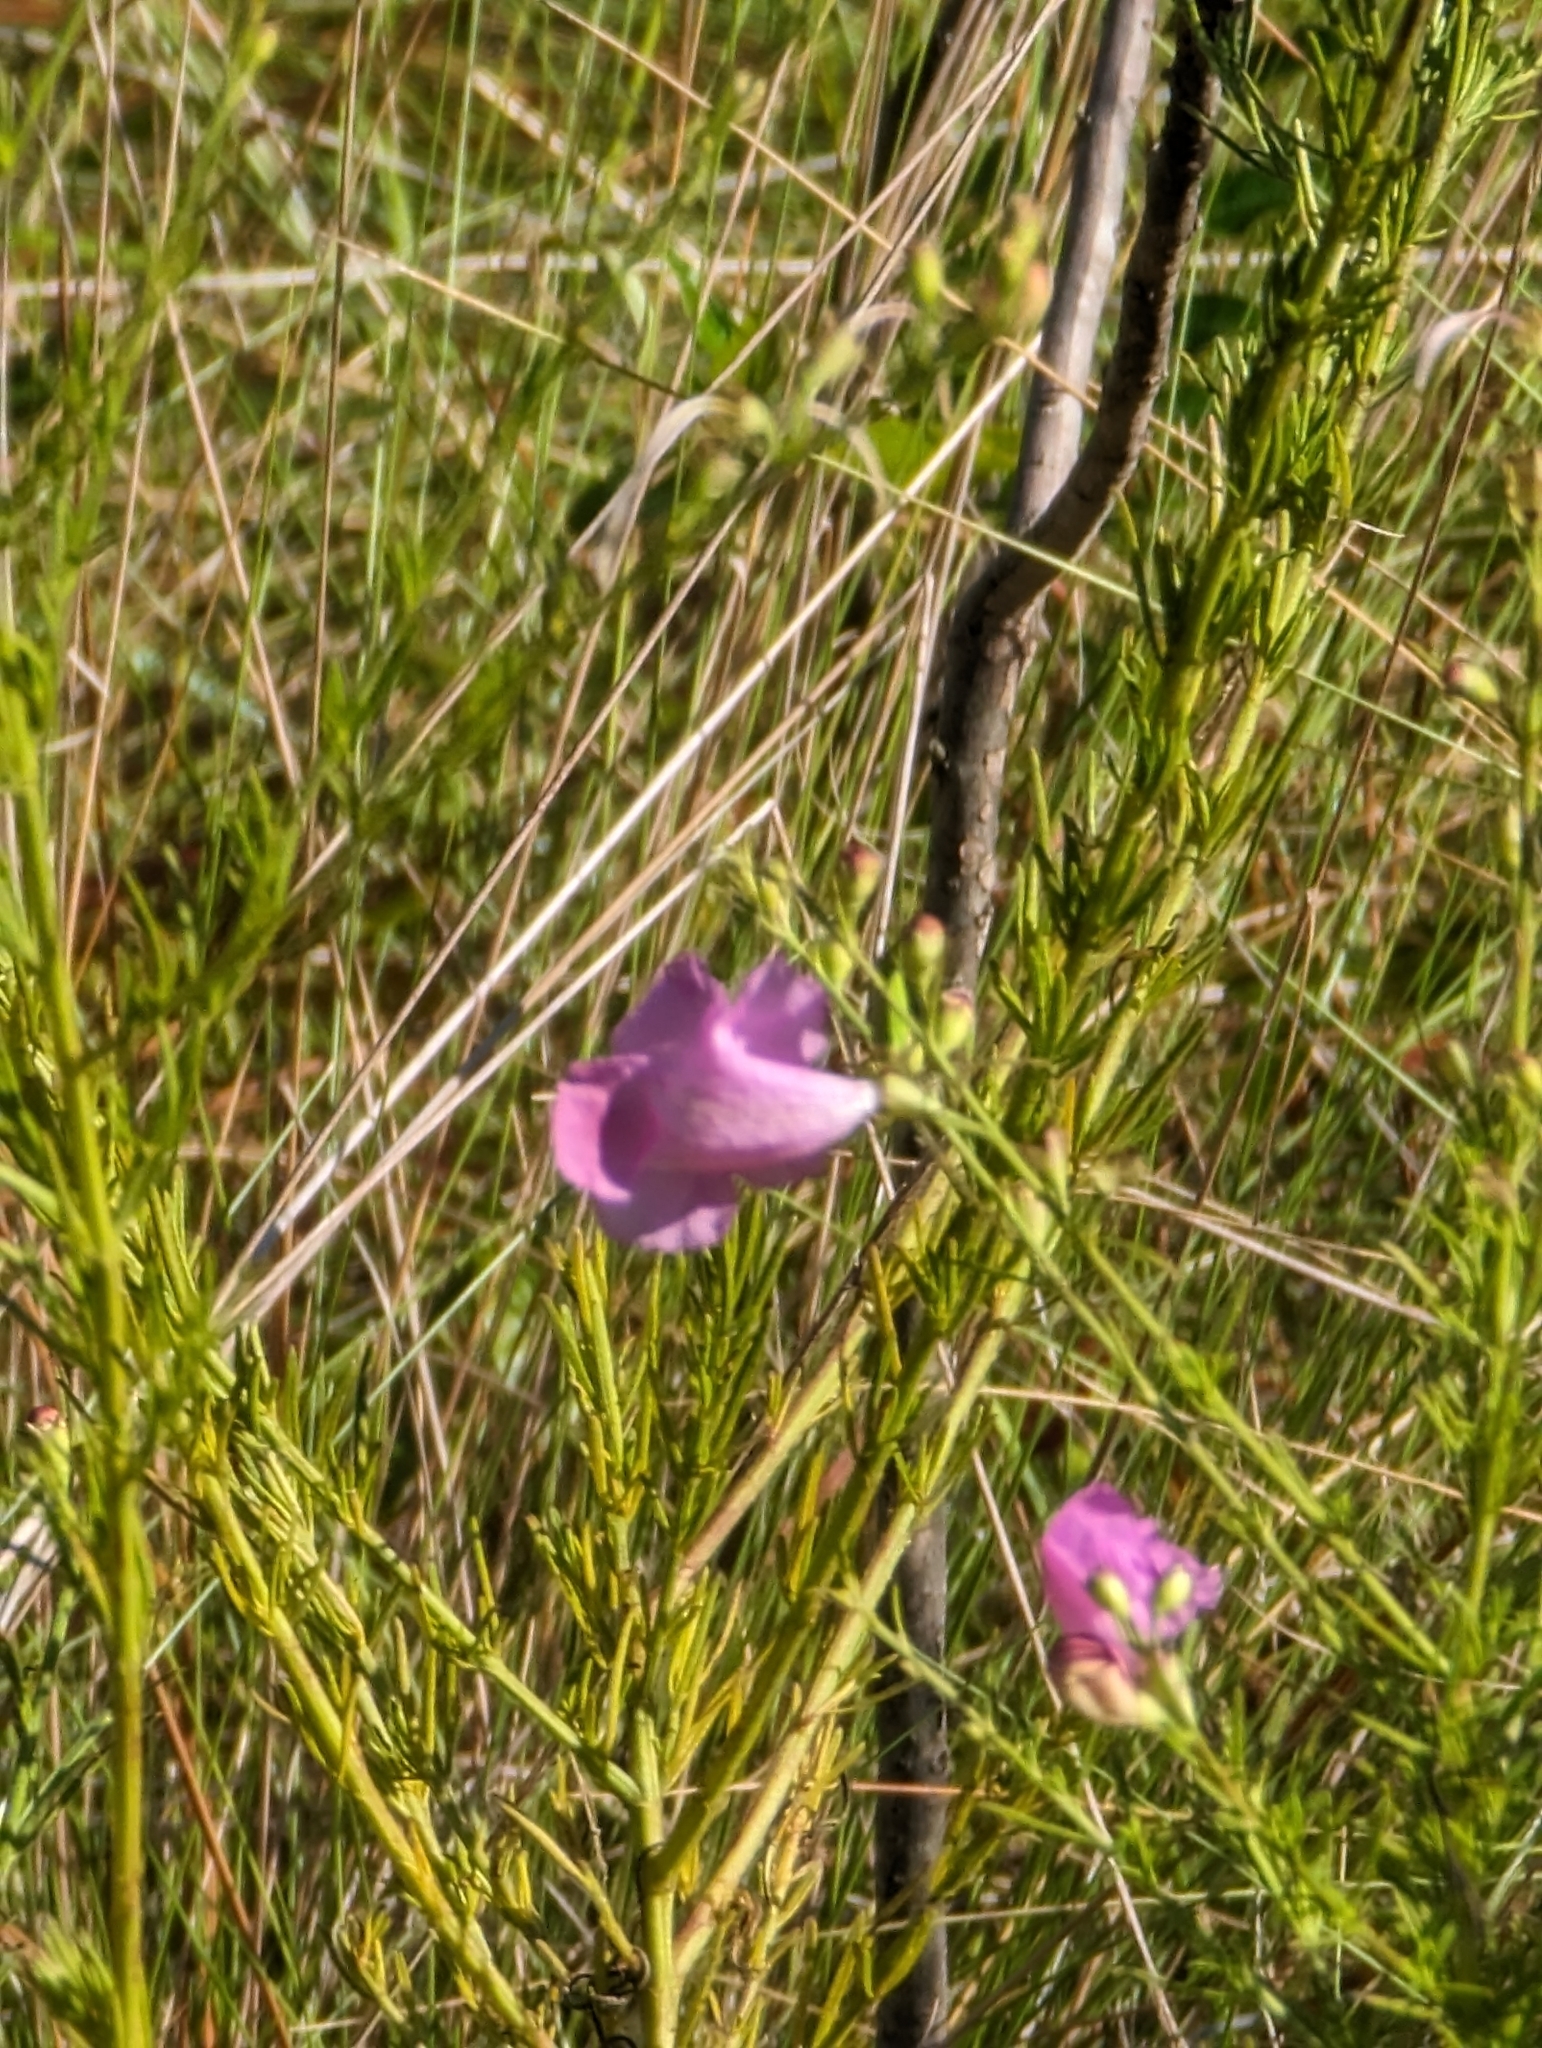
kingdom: Plantae
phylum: Tracheophyta
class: Magnoliopsida
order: Lamiales
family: Orobanchaceae
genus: Agalinis
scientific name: Agalinis fasciculata
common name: Beach false foxglove
